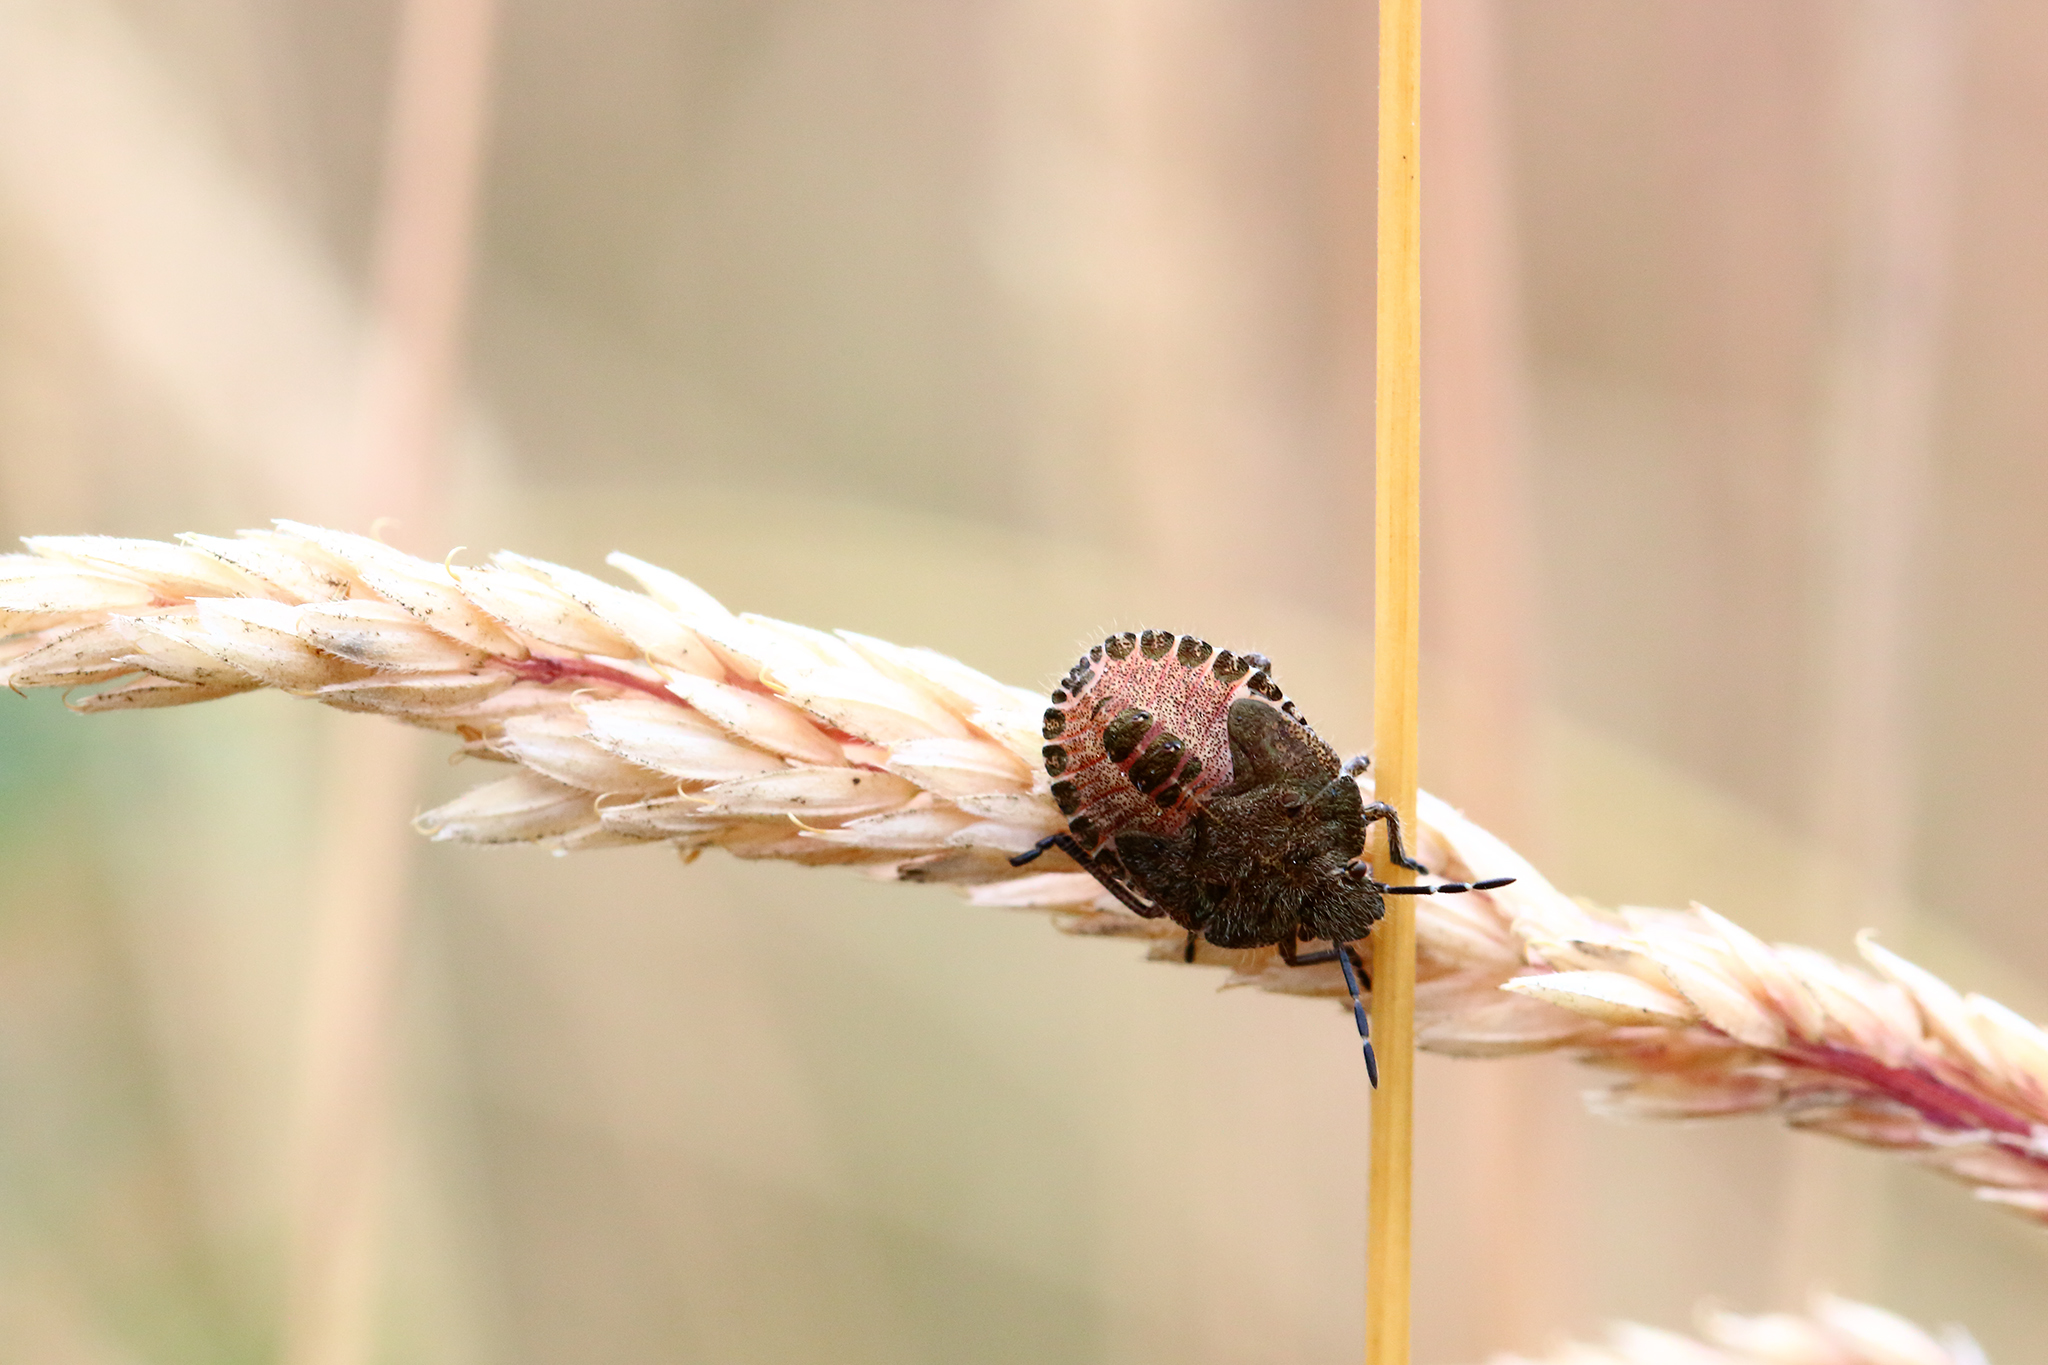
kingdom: Animalia
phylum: Arthropoda
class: Insecta
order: Hemiptera
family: Pentatomidae
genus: Dolycoris
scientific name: Dolycoris baccarum
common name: Sloe bug
